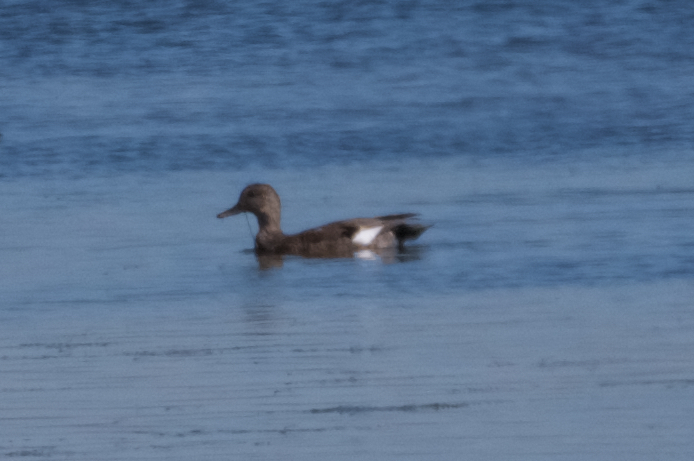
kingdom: Animalia
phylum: Chordata
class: Aves
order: Anseriformes
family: Anatidae
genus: Mareca
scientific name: Mareca strepera
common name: Gadwall
